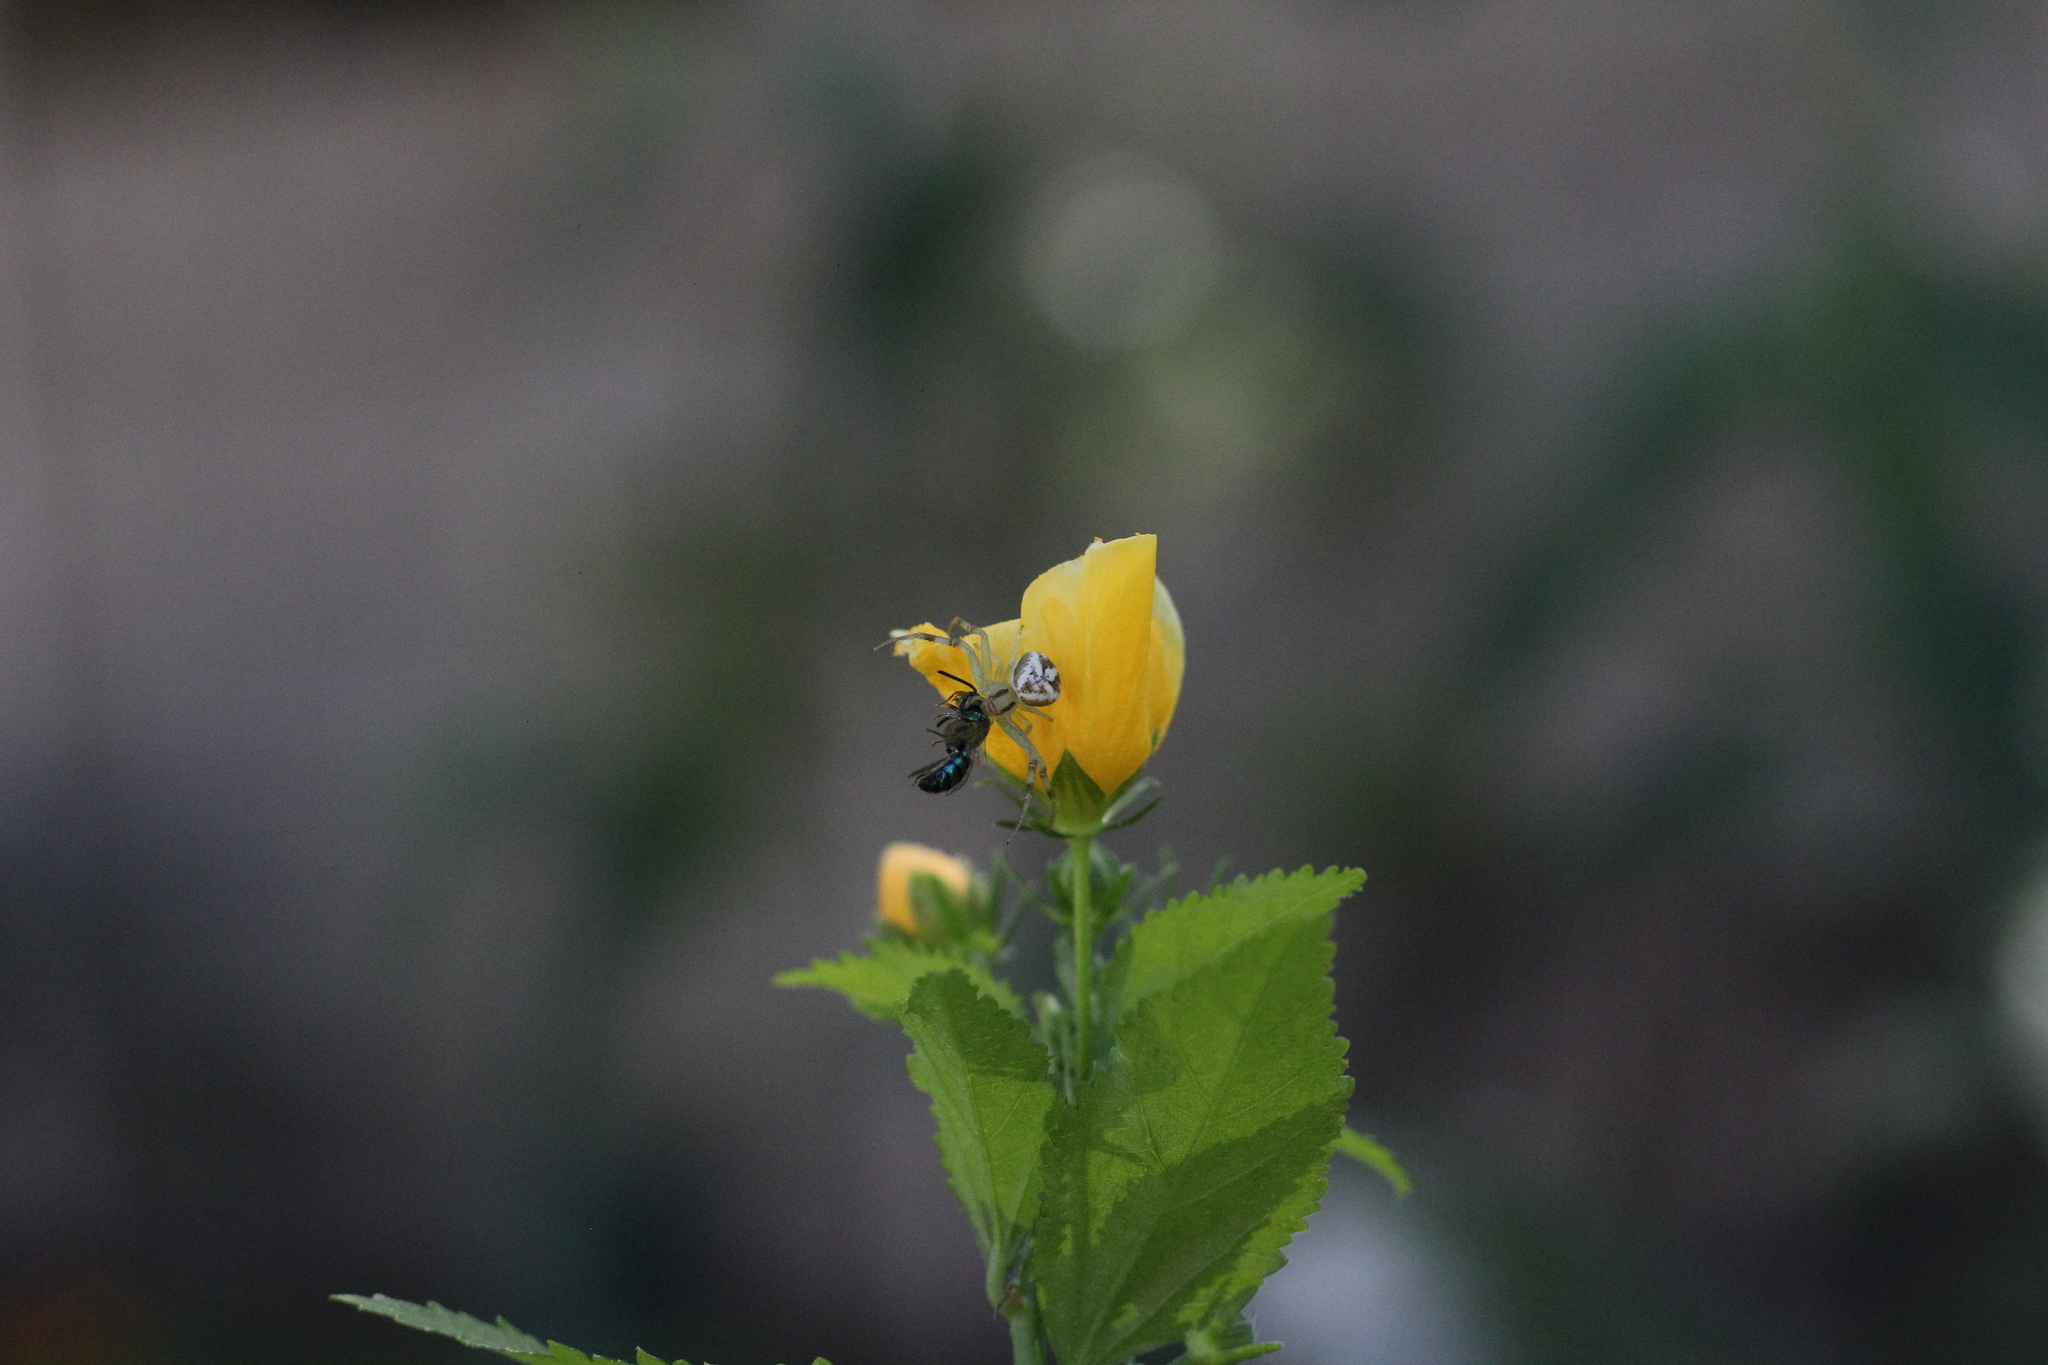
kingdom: Animalia
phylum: Arthropoda
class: Arachnida
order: Araneae
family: Thomisidae
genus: Misumenops
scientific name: Misumenops
